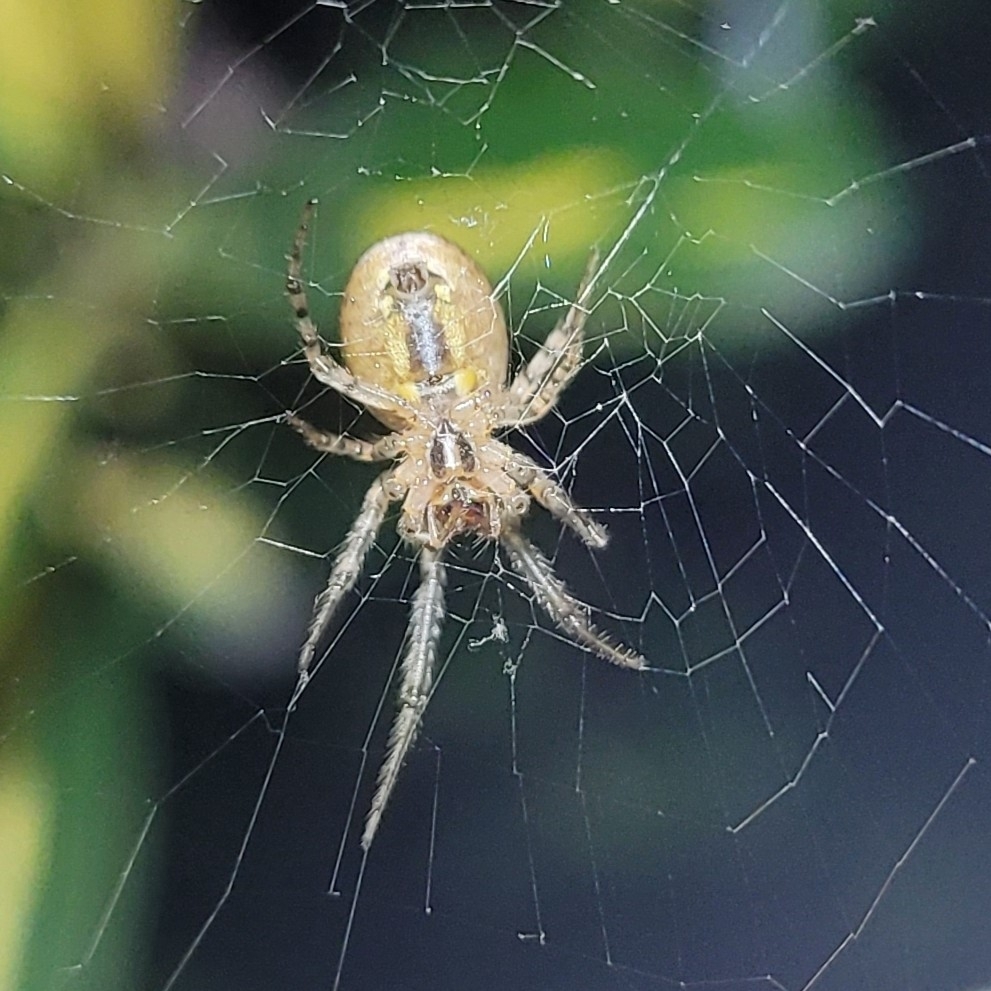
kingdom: Animalia
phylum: Arthropoda
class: Arachnida
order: Araneae
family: Araneidae
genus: Zygiella
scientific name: Zygiella x-notata
